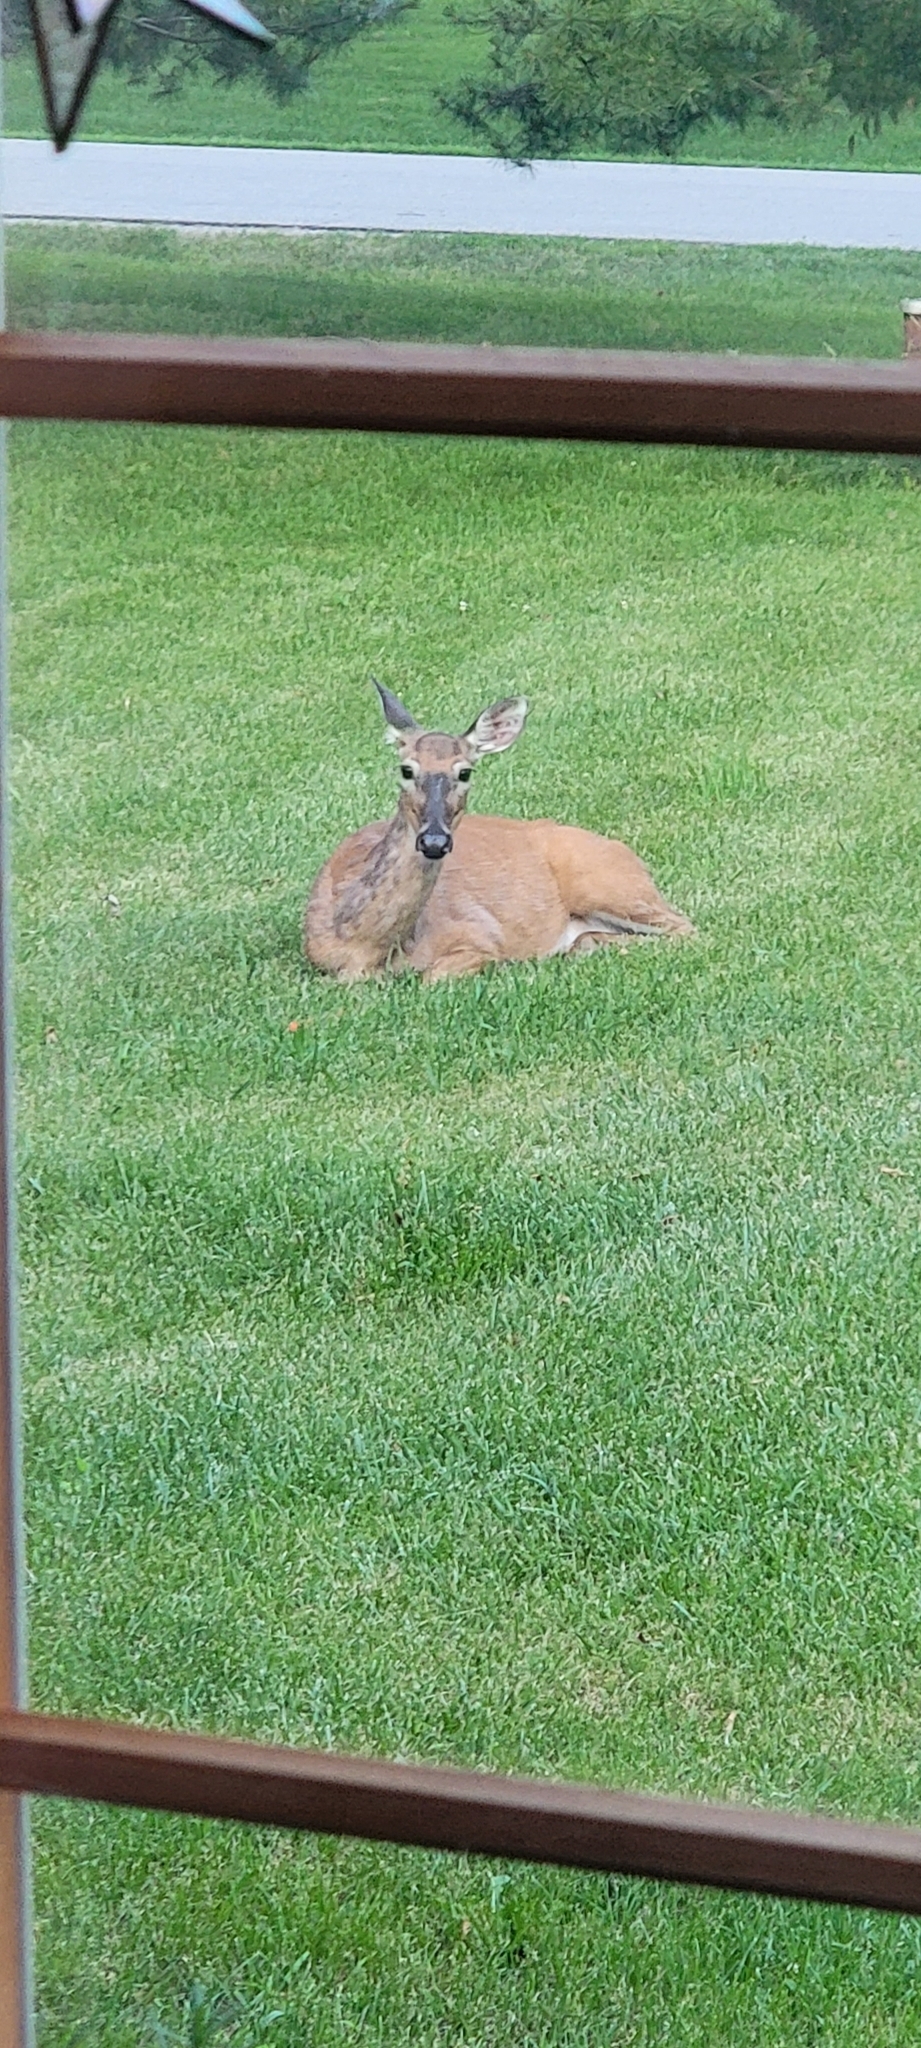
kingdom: Animalia
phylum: Chordata
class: Mammalia
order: Artiodactyla
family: Cervidae
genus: Odocoileus
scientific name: Odocoileus virginianus
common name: White-tailed deer
